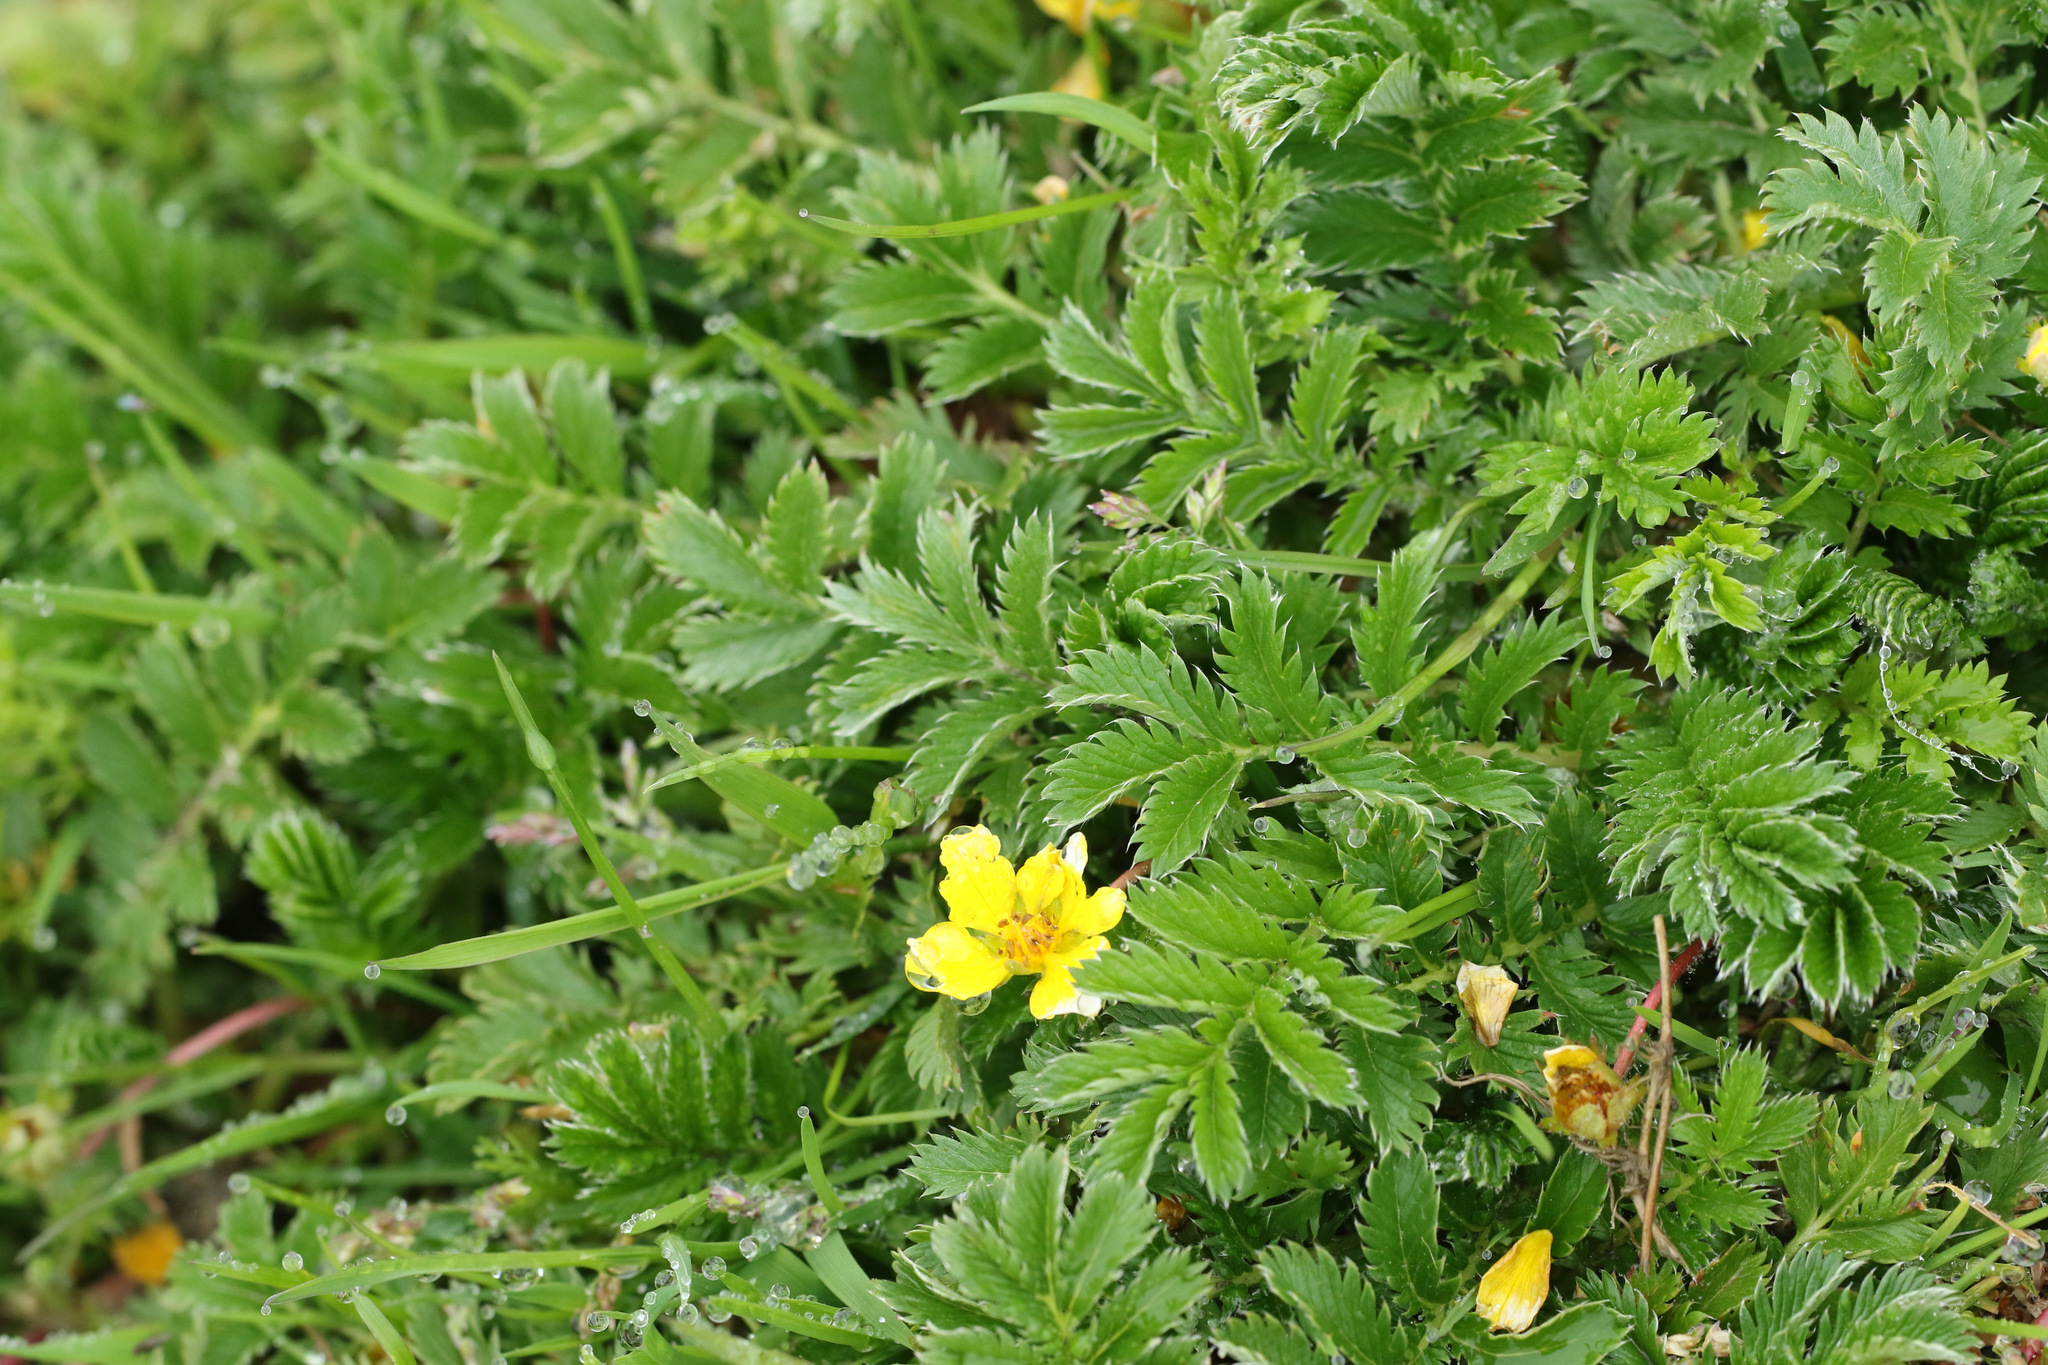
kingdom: Plantae
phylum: Tracheophyta
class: Magnoliopsida
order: Rosales
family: Rosaceae
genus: Argentina
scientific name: Argentina anserina
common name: Common silverweed
